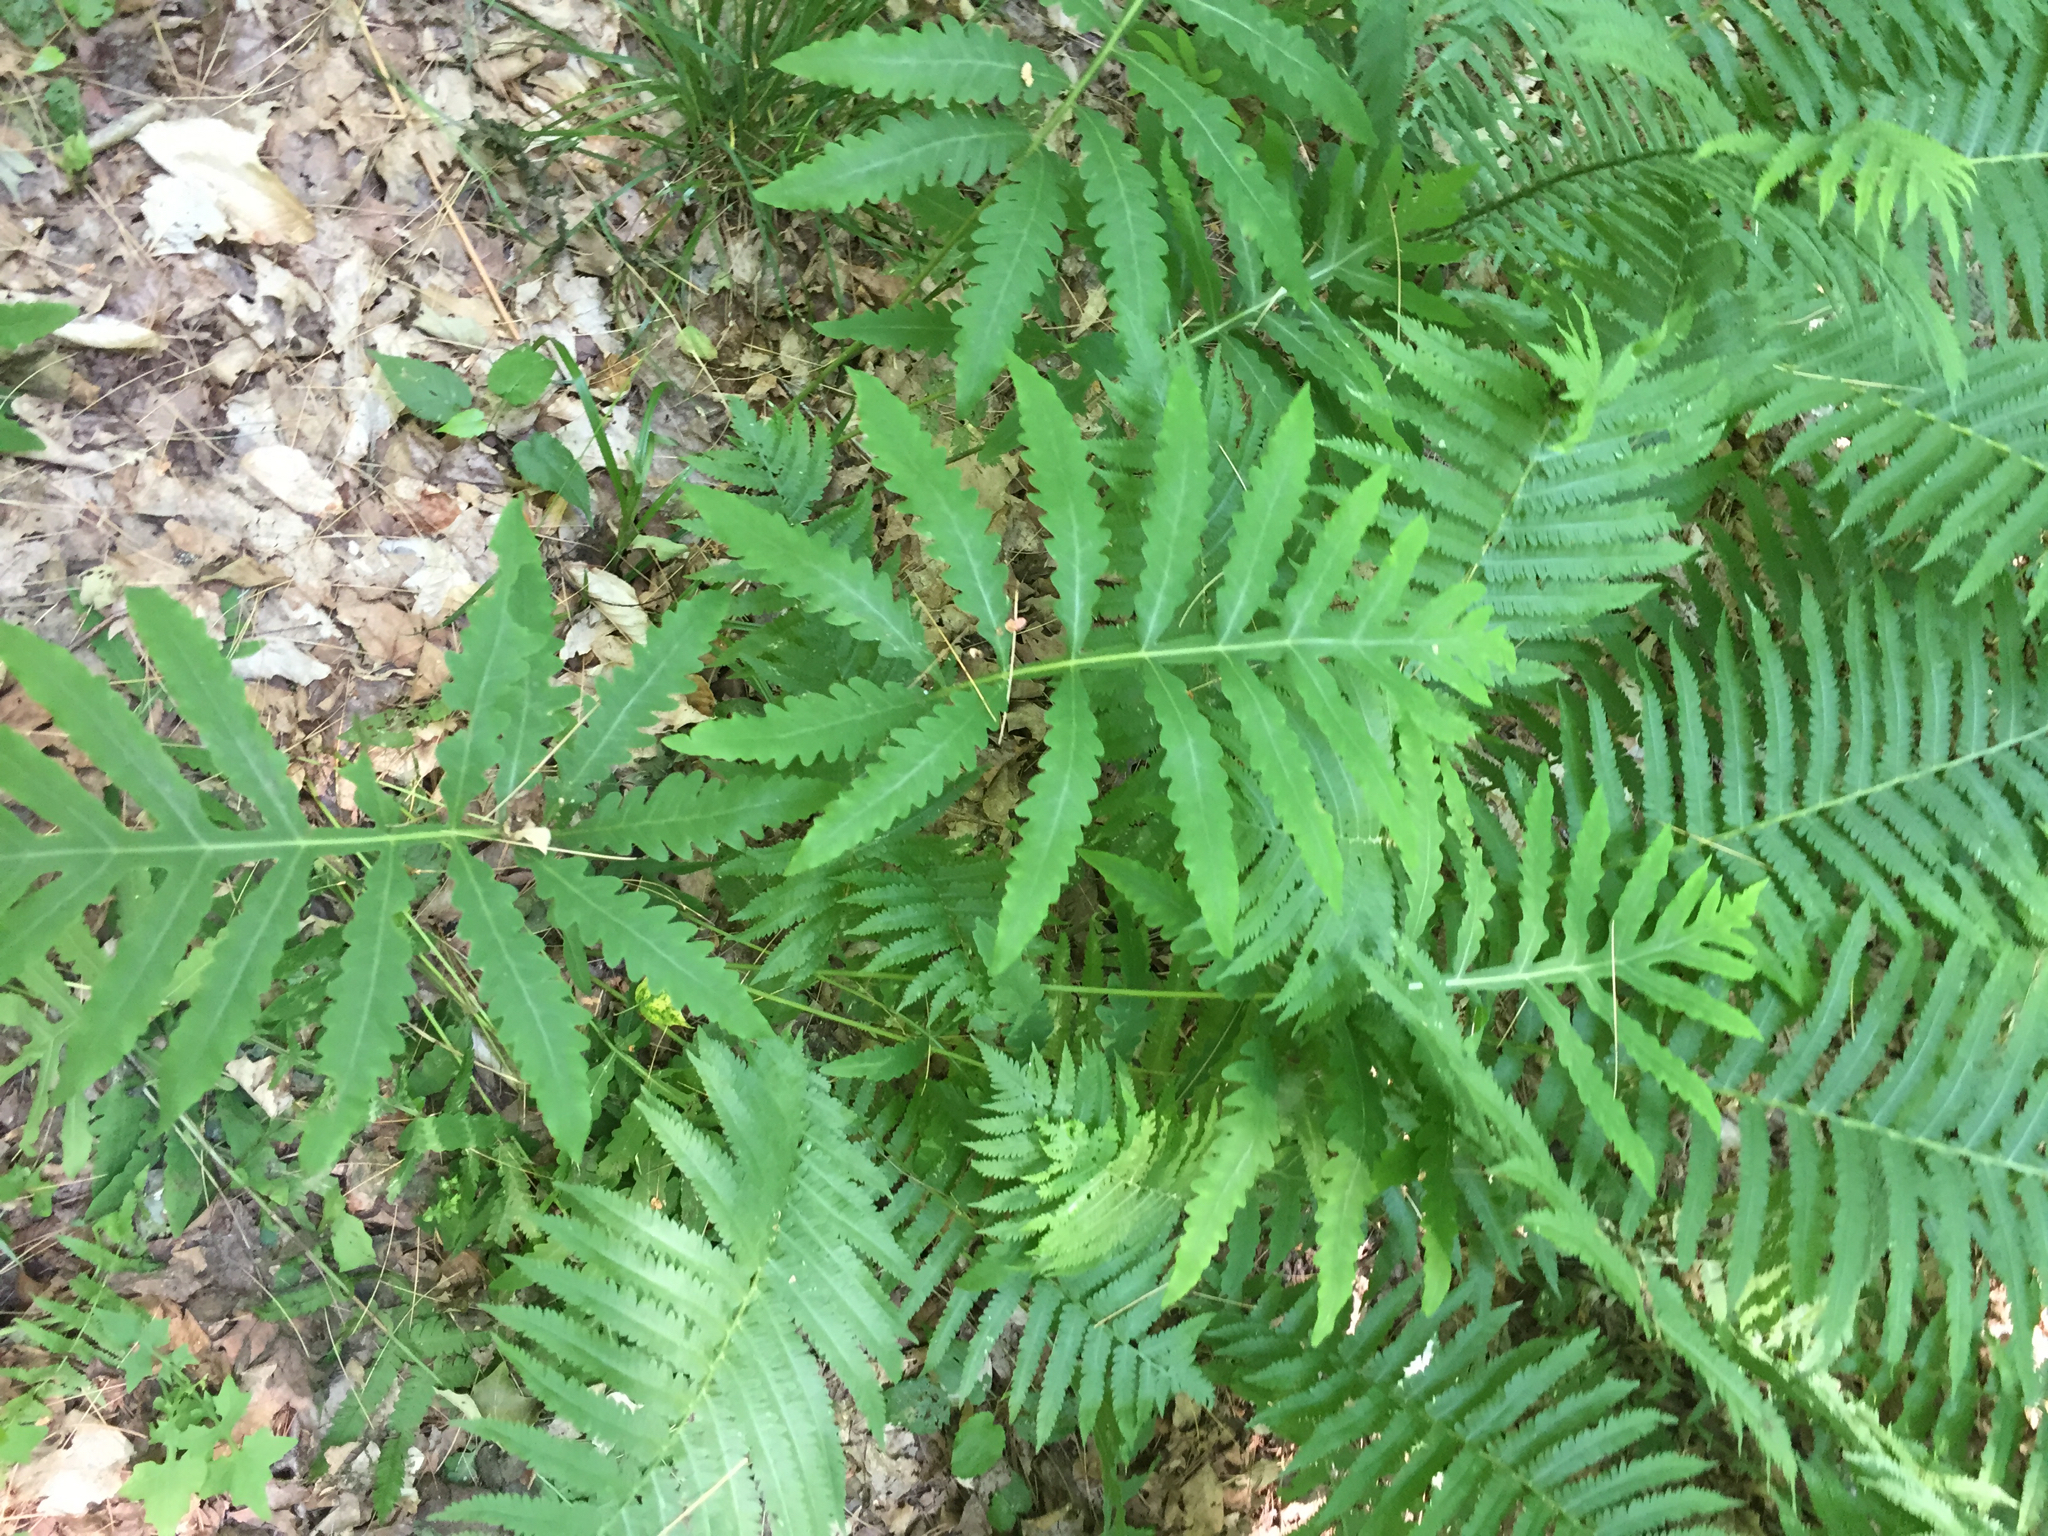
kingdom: Plantae
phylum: Tracheophyta
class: Polypodiopsida
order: Polypodiales
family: Onocleaceae
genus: Onoclea
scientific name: Onoclea sensibilis
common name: Sensitive fern
